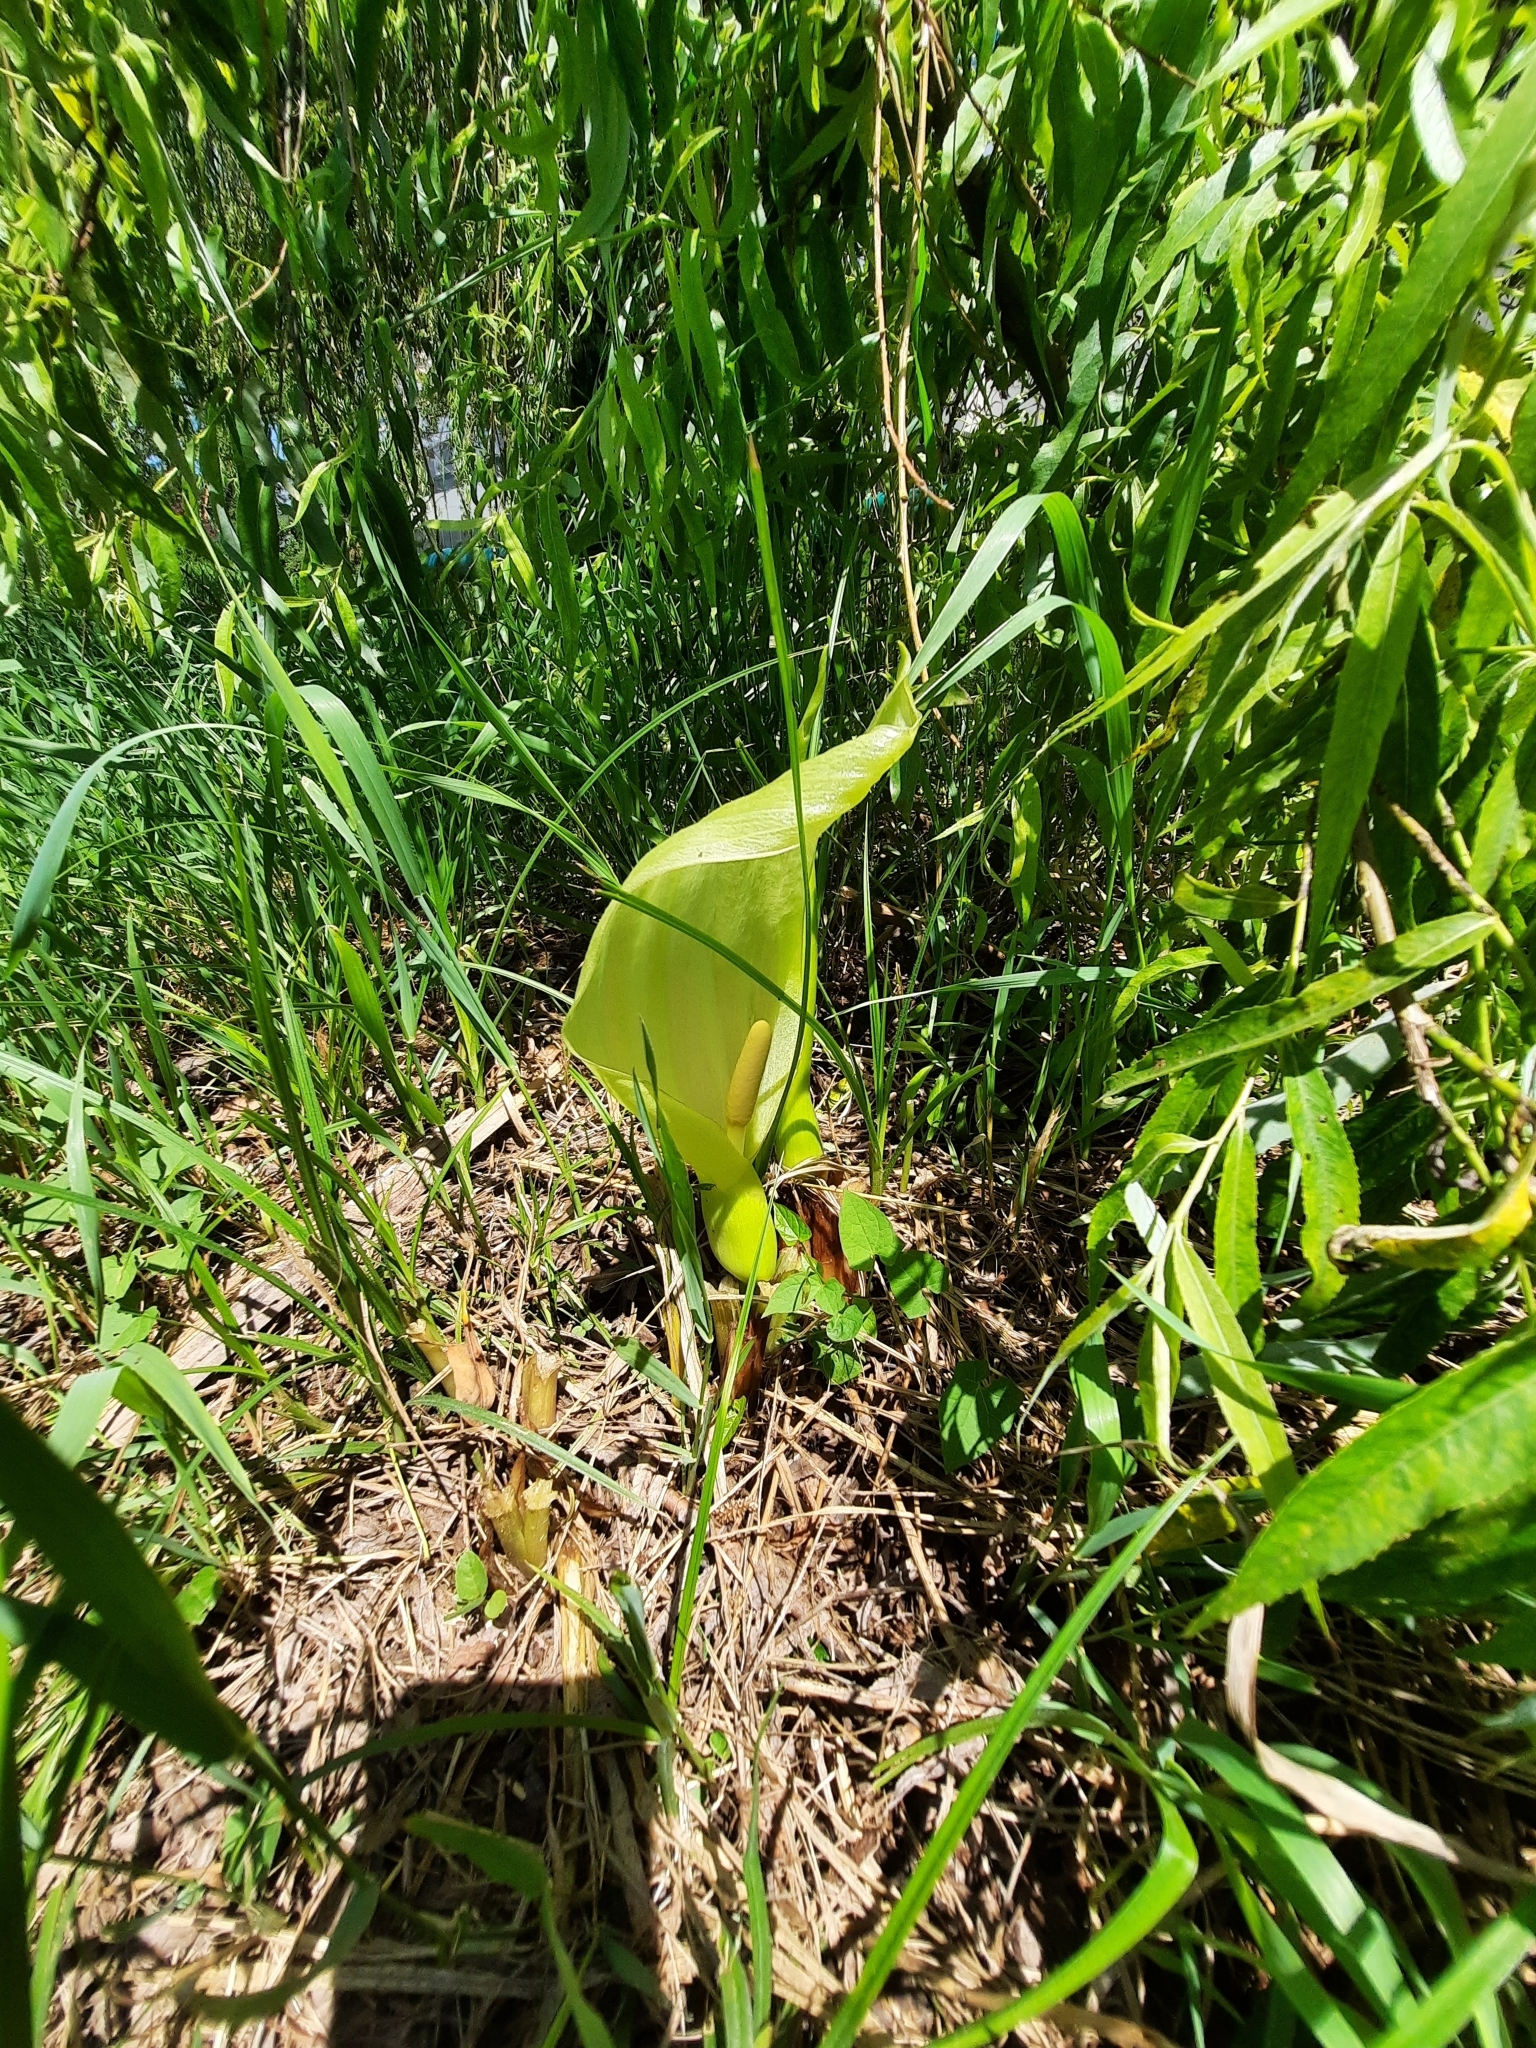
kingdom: Plantae
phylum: Tracheophyta
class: Liliopsida
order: Alismatales
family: Araceae
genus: Arum
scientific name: Arum italicum
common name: Italian lords-and-ladies
